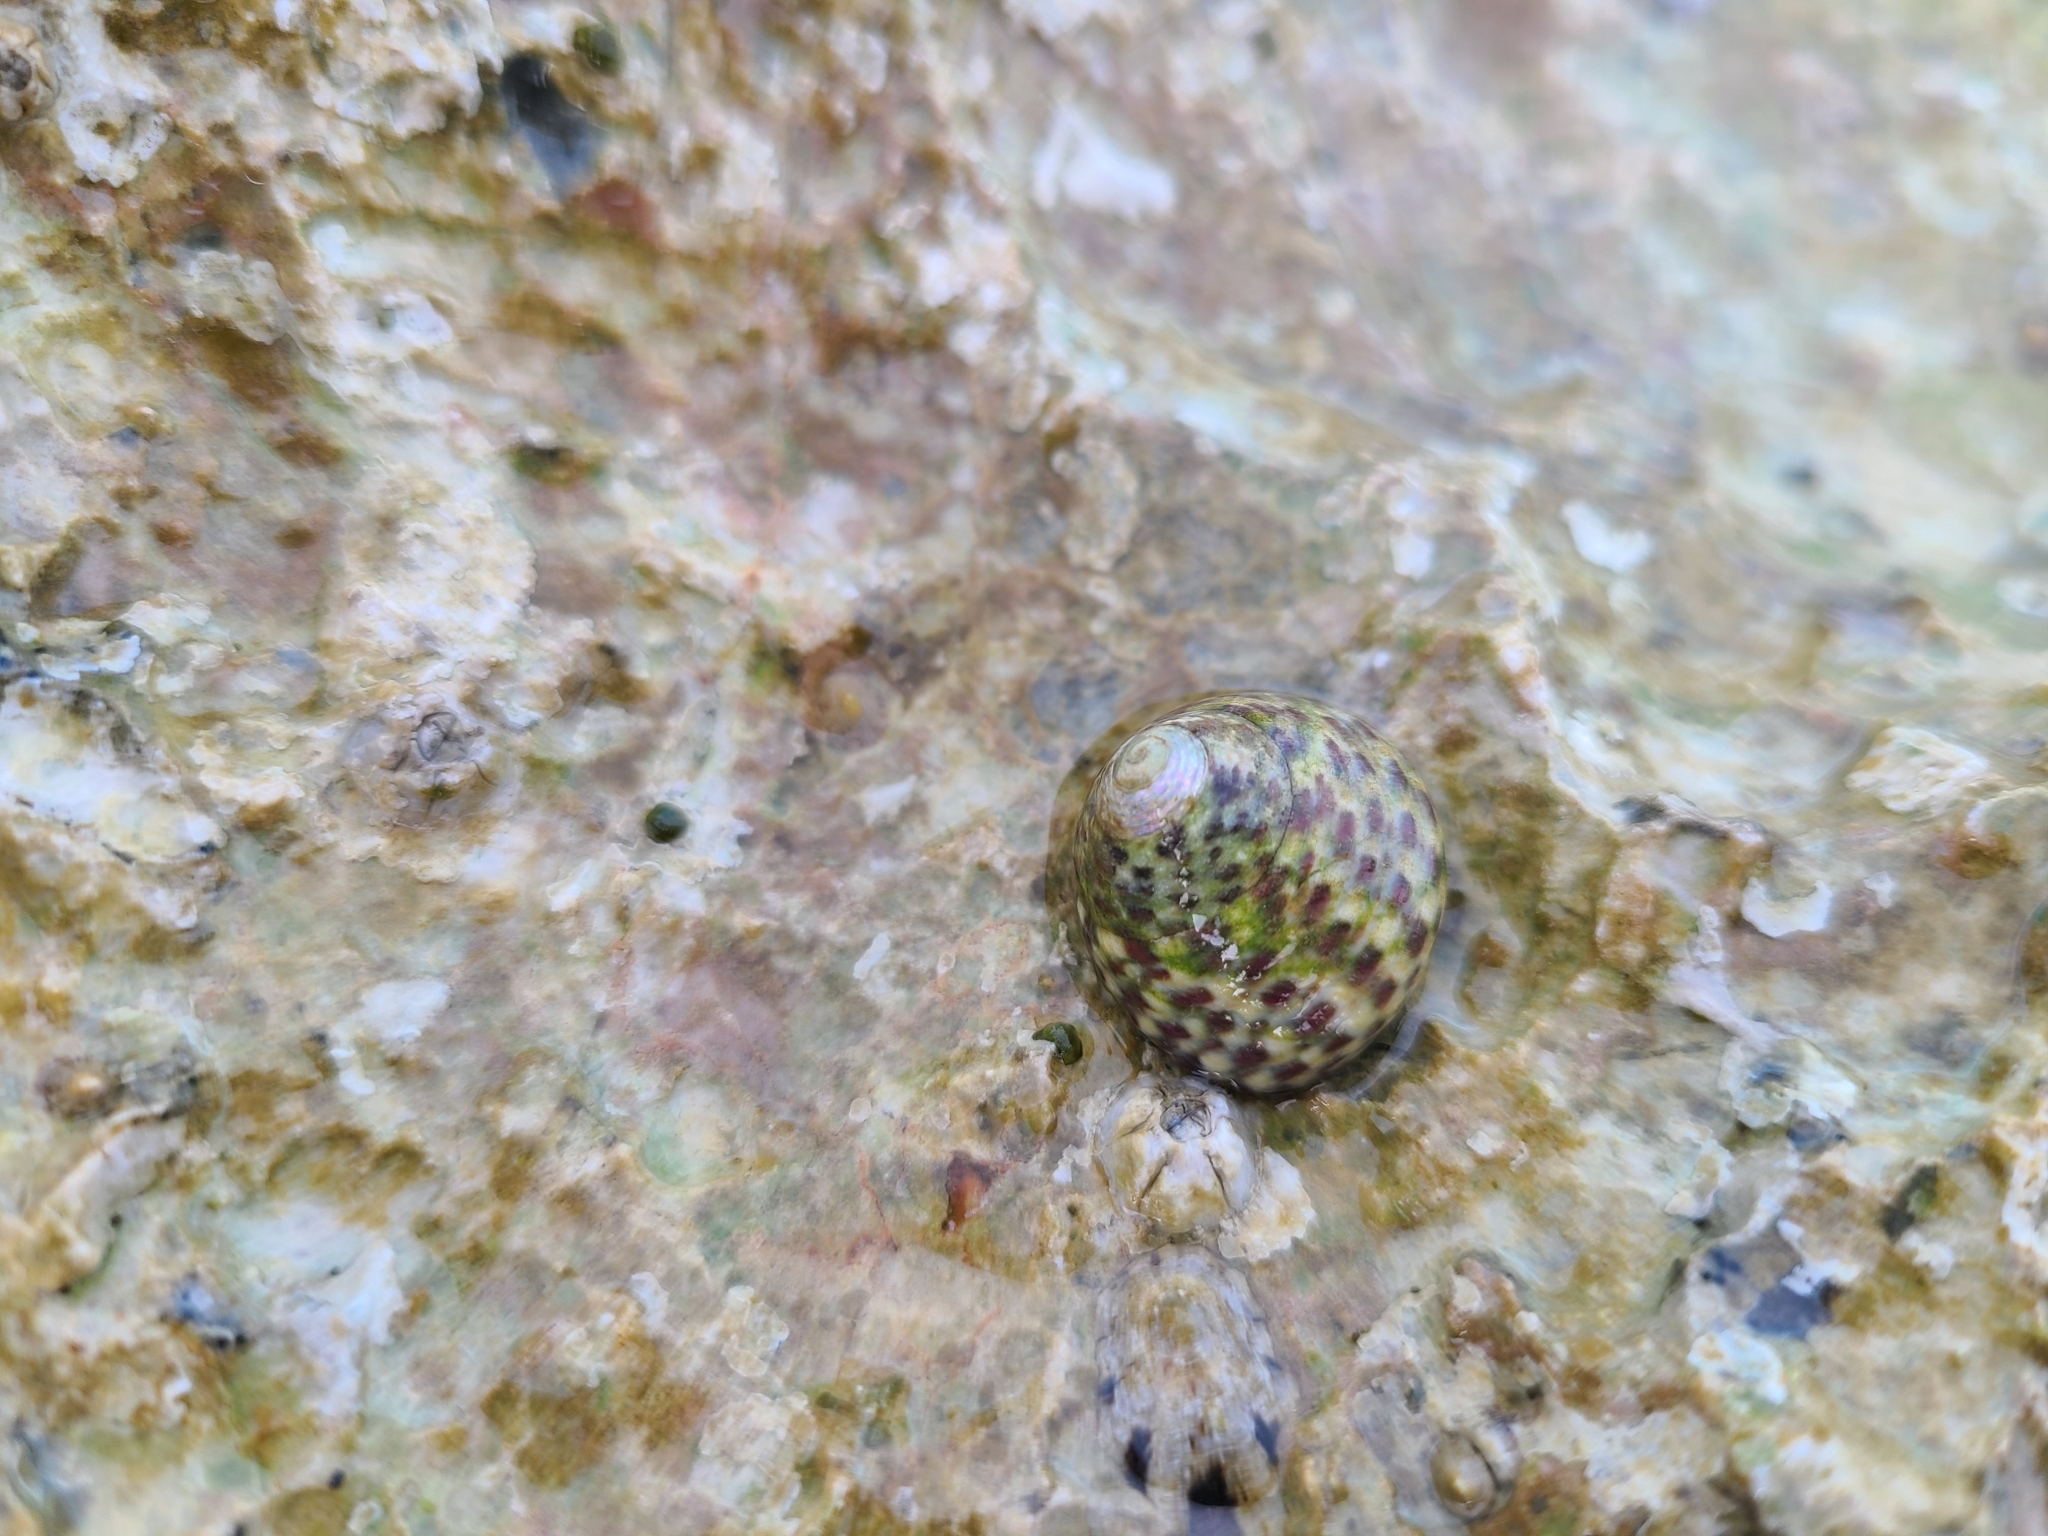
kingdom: Animalia
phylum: Mollusca
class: Gastropoda
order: Trochida
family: Trochidae
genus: Phorcus
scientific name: Phorcus turbinatus
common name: Turbinate monodont
